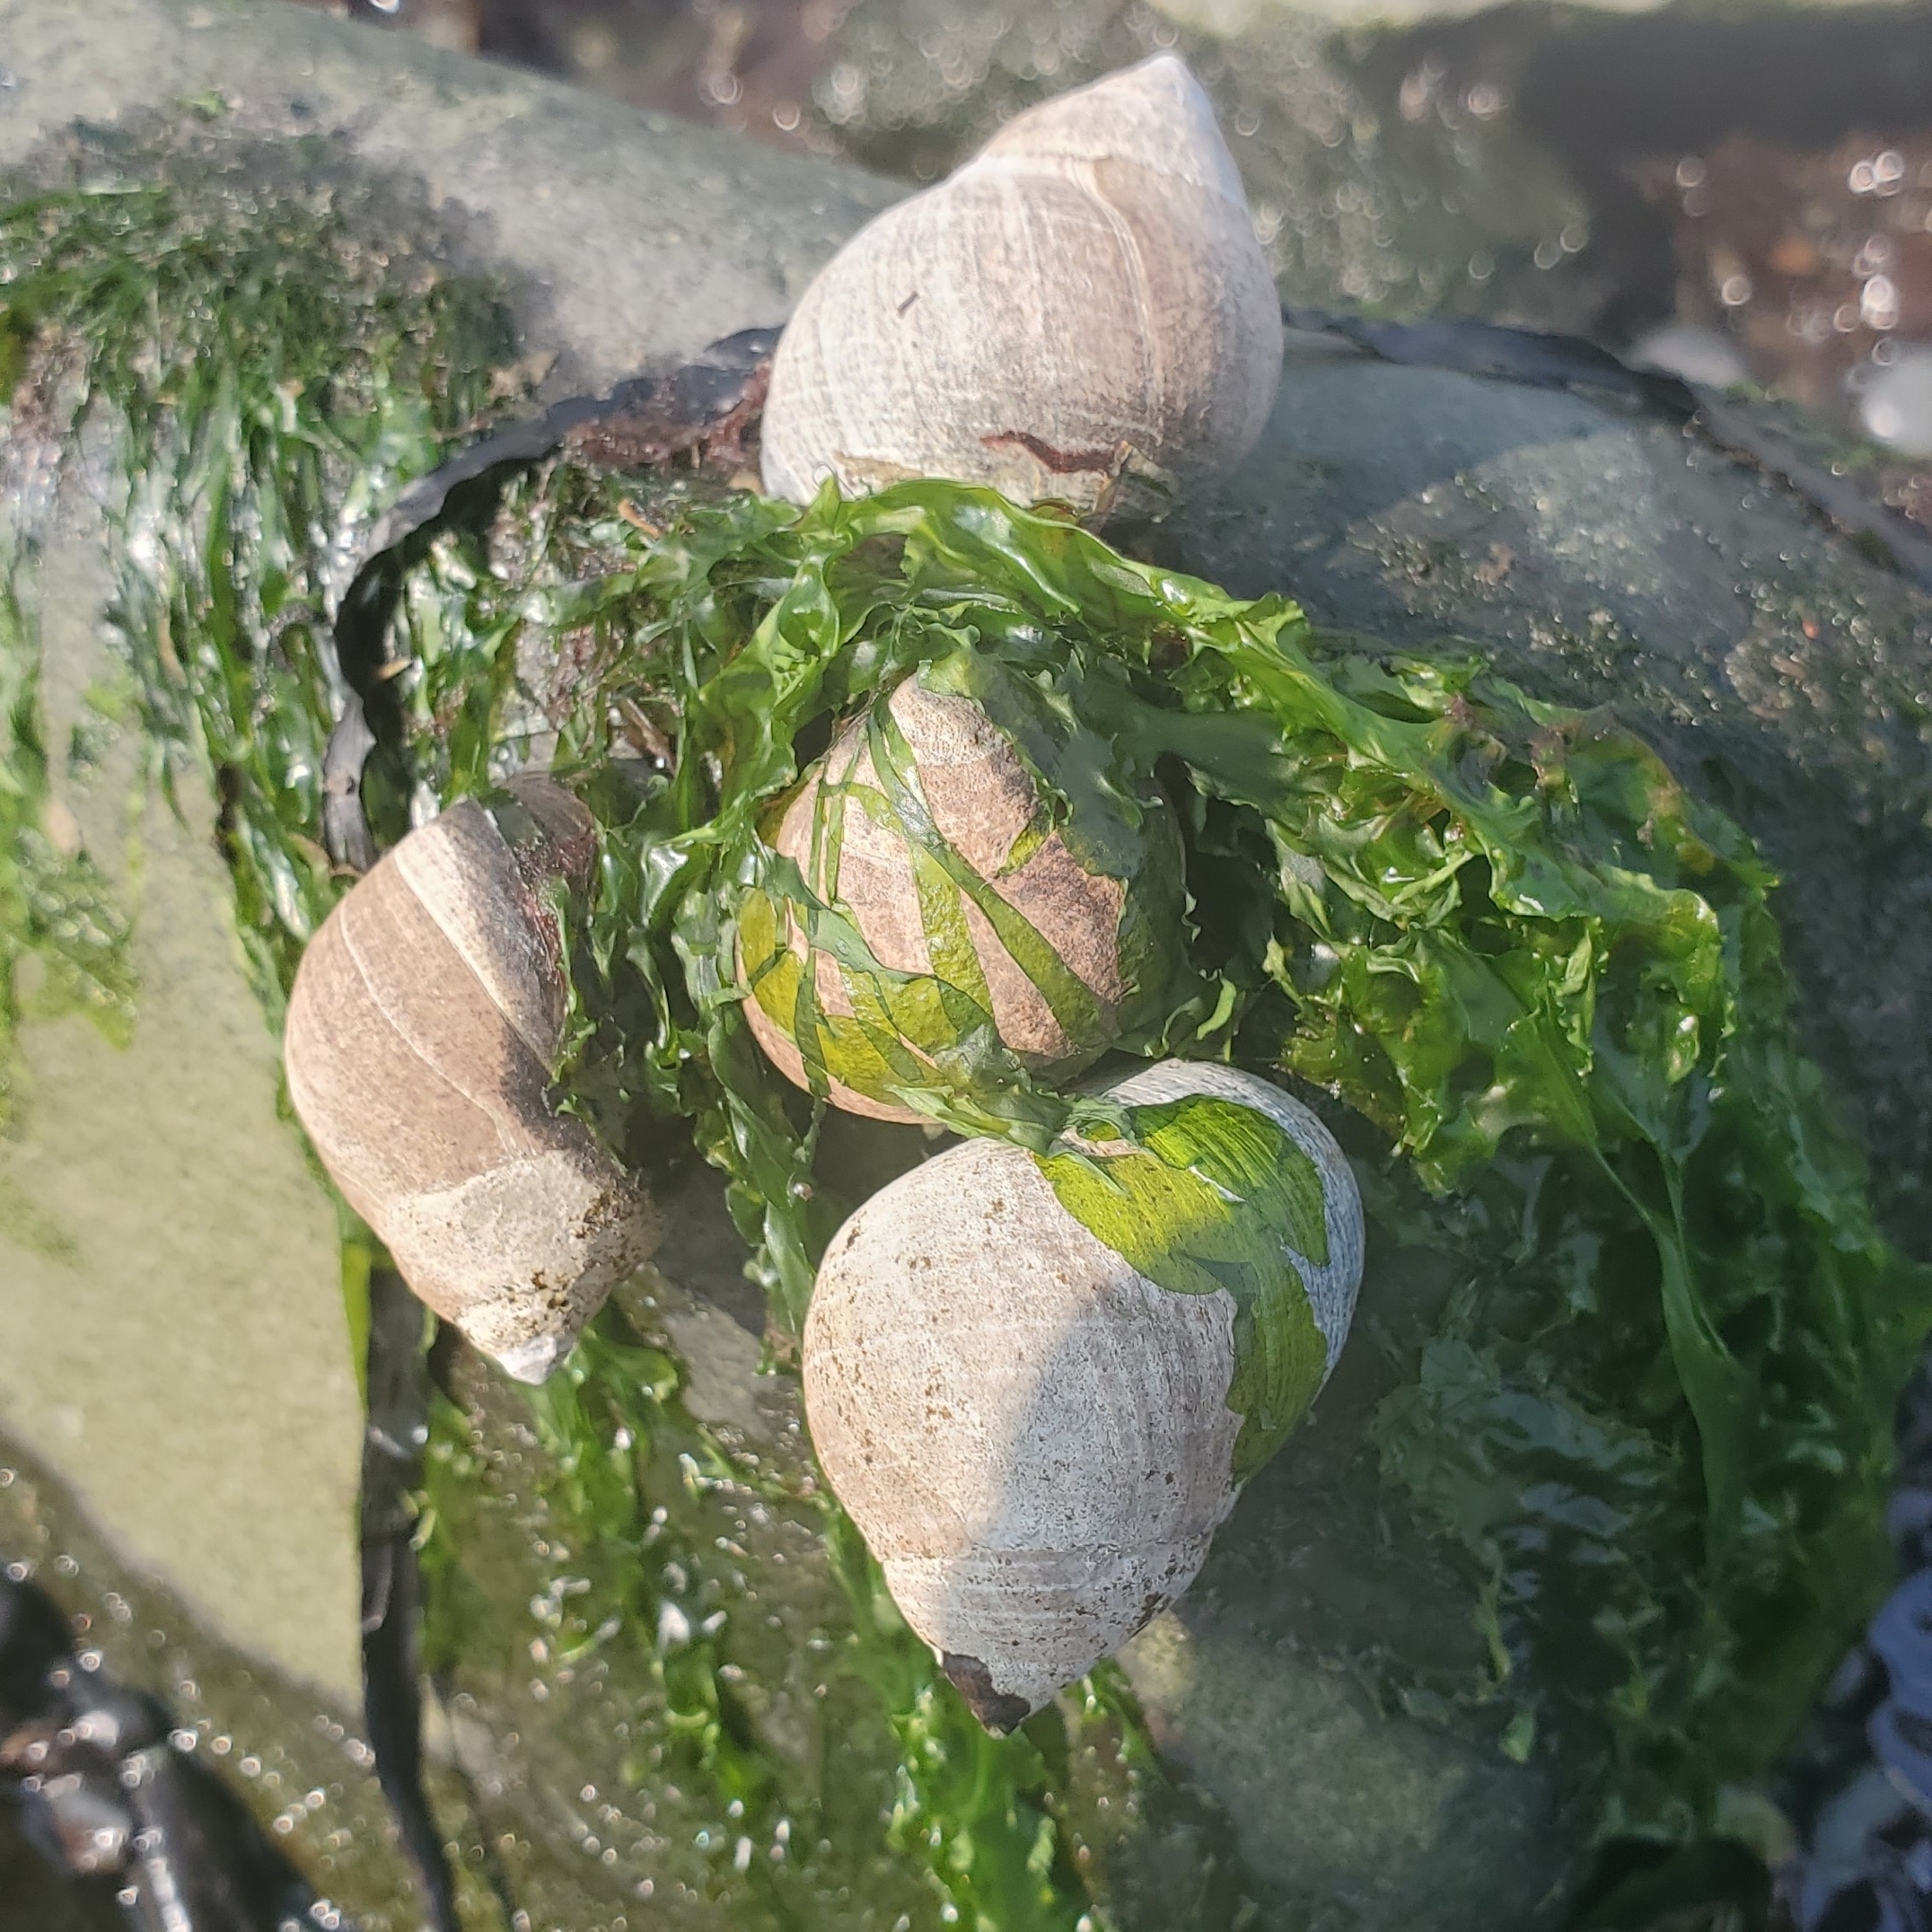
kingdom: Animalia
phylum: Mollusca
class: Gastropoda
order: Littorinimorpha
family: Littorinidae
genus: Littorina
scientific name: Littorina littorea
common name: Common periwinkle
